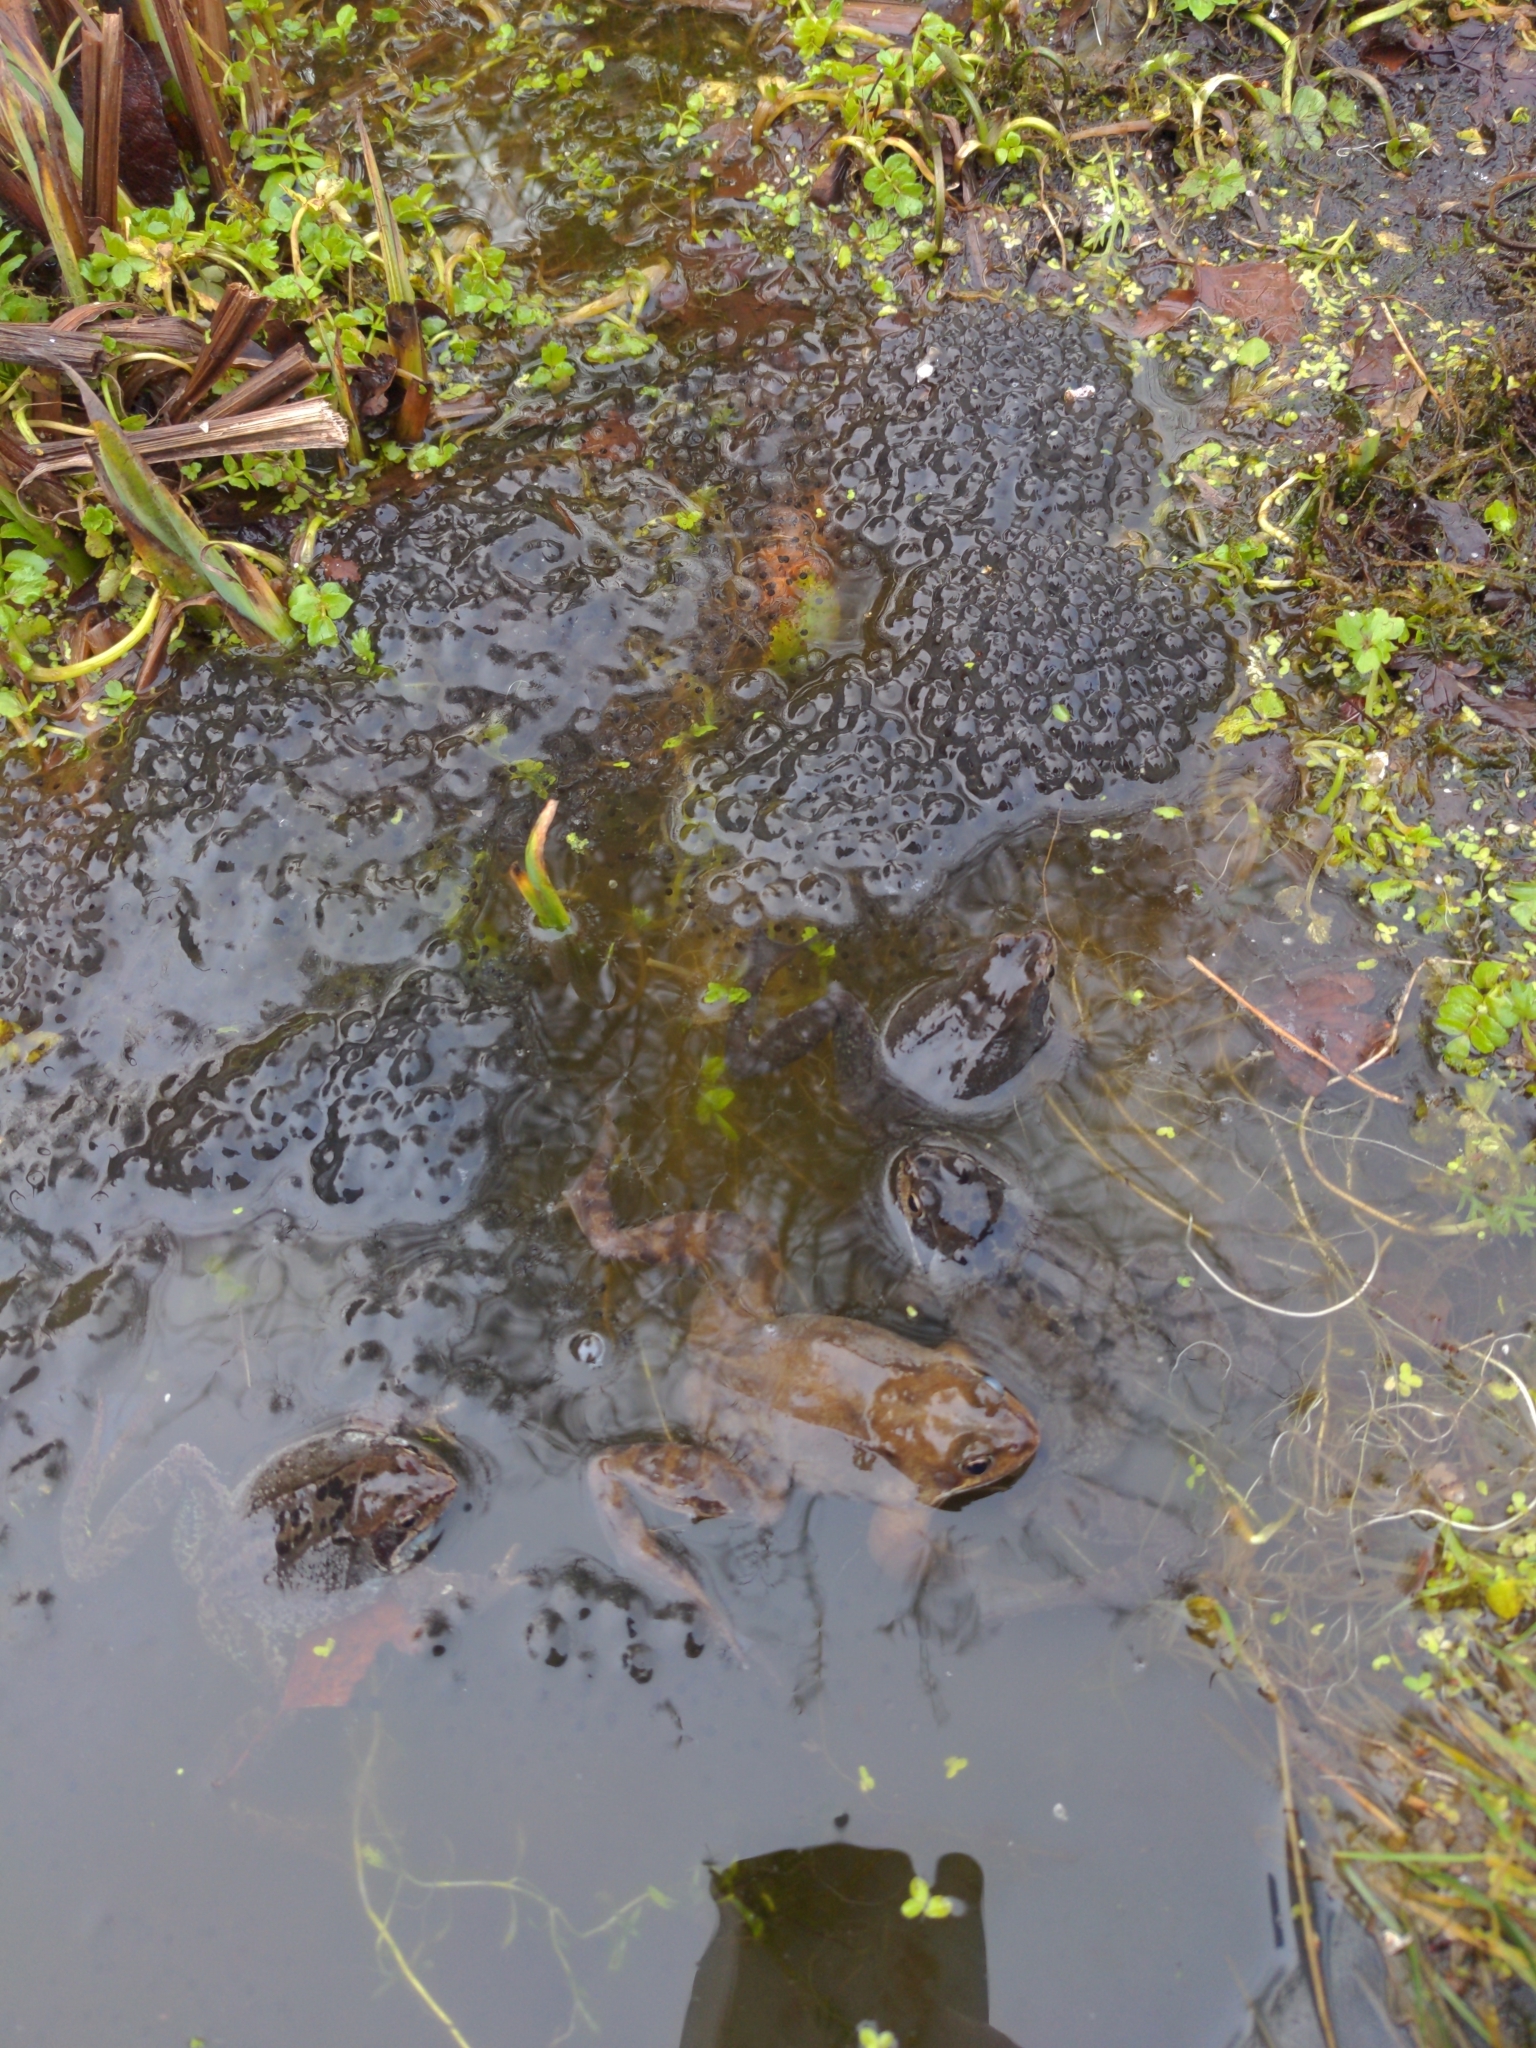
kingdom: Animalia
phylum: Chordata
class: Amphibia
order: Anura
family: Ranidae
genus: Rana
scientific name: Rana temporaria
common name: Common frog
